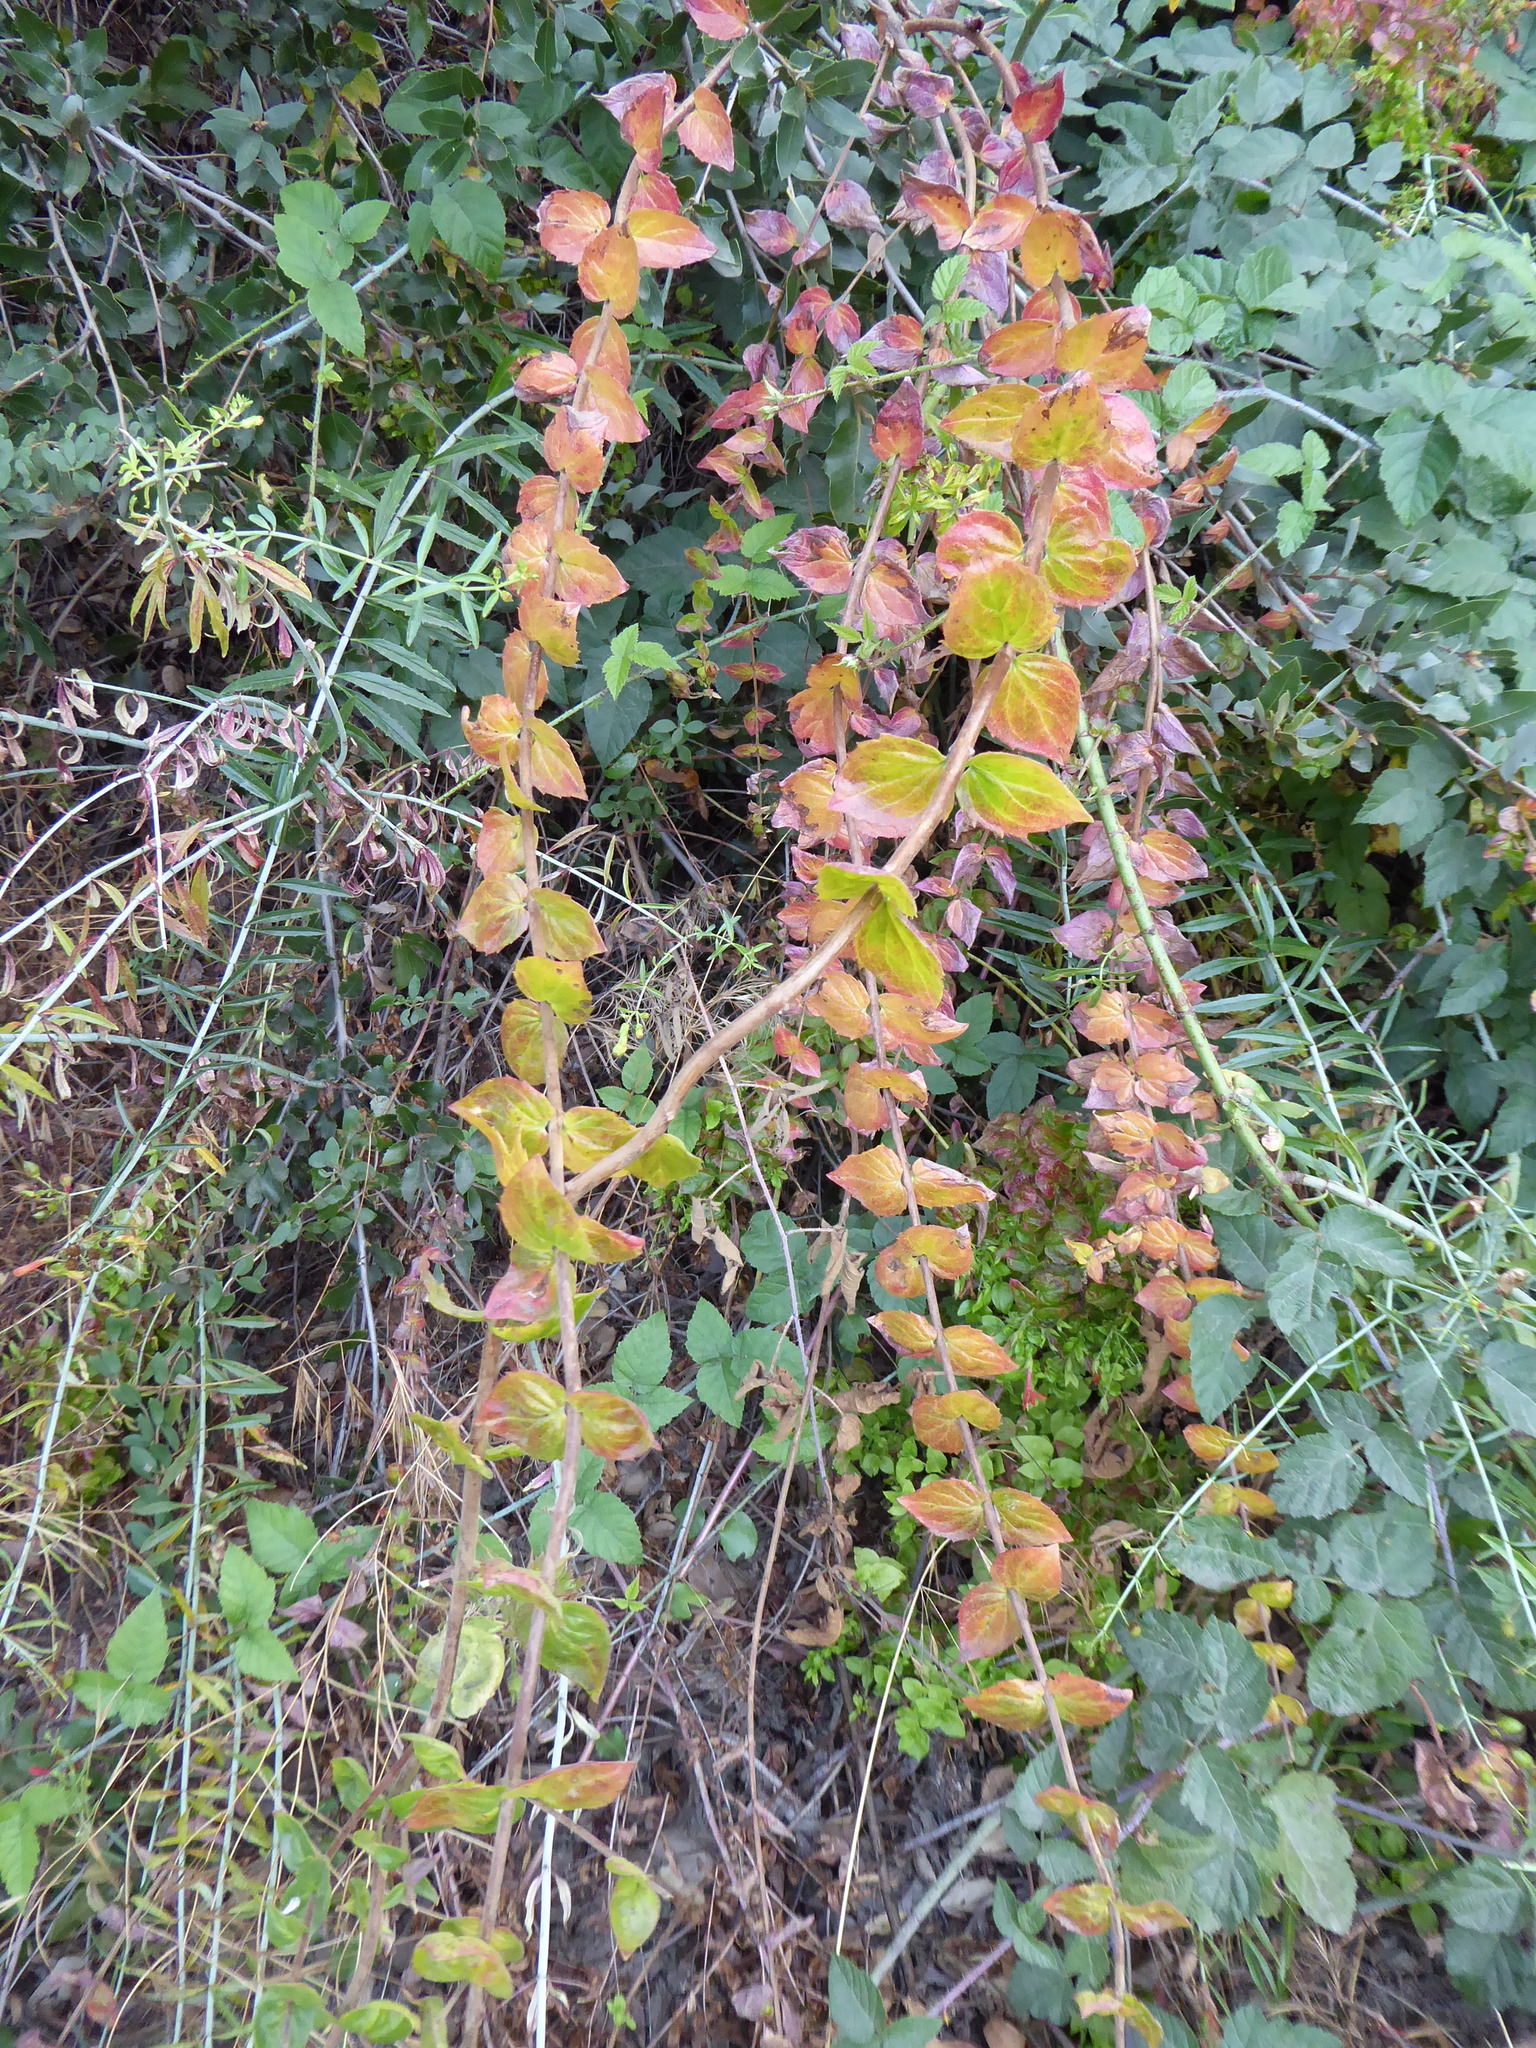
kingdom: Plantae
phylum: Tracheophyta
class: Magnoliopsida
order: Lamiales
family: Plantaginaceae
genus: Keckiella
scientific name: Keckiella cordifolia
